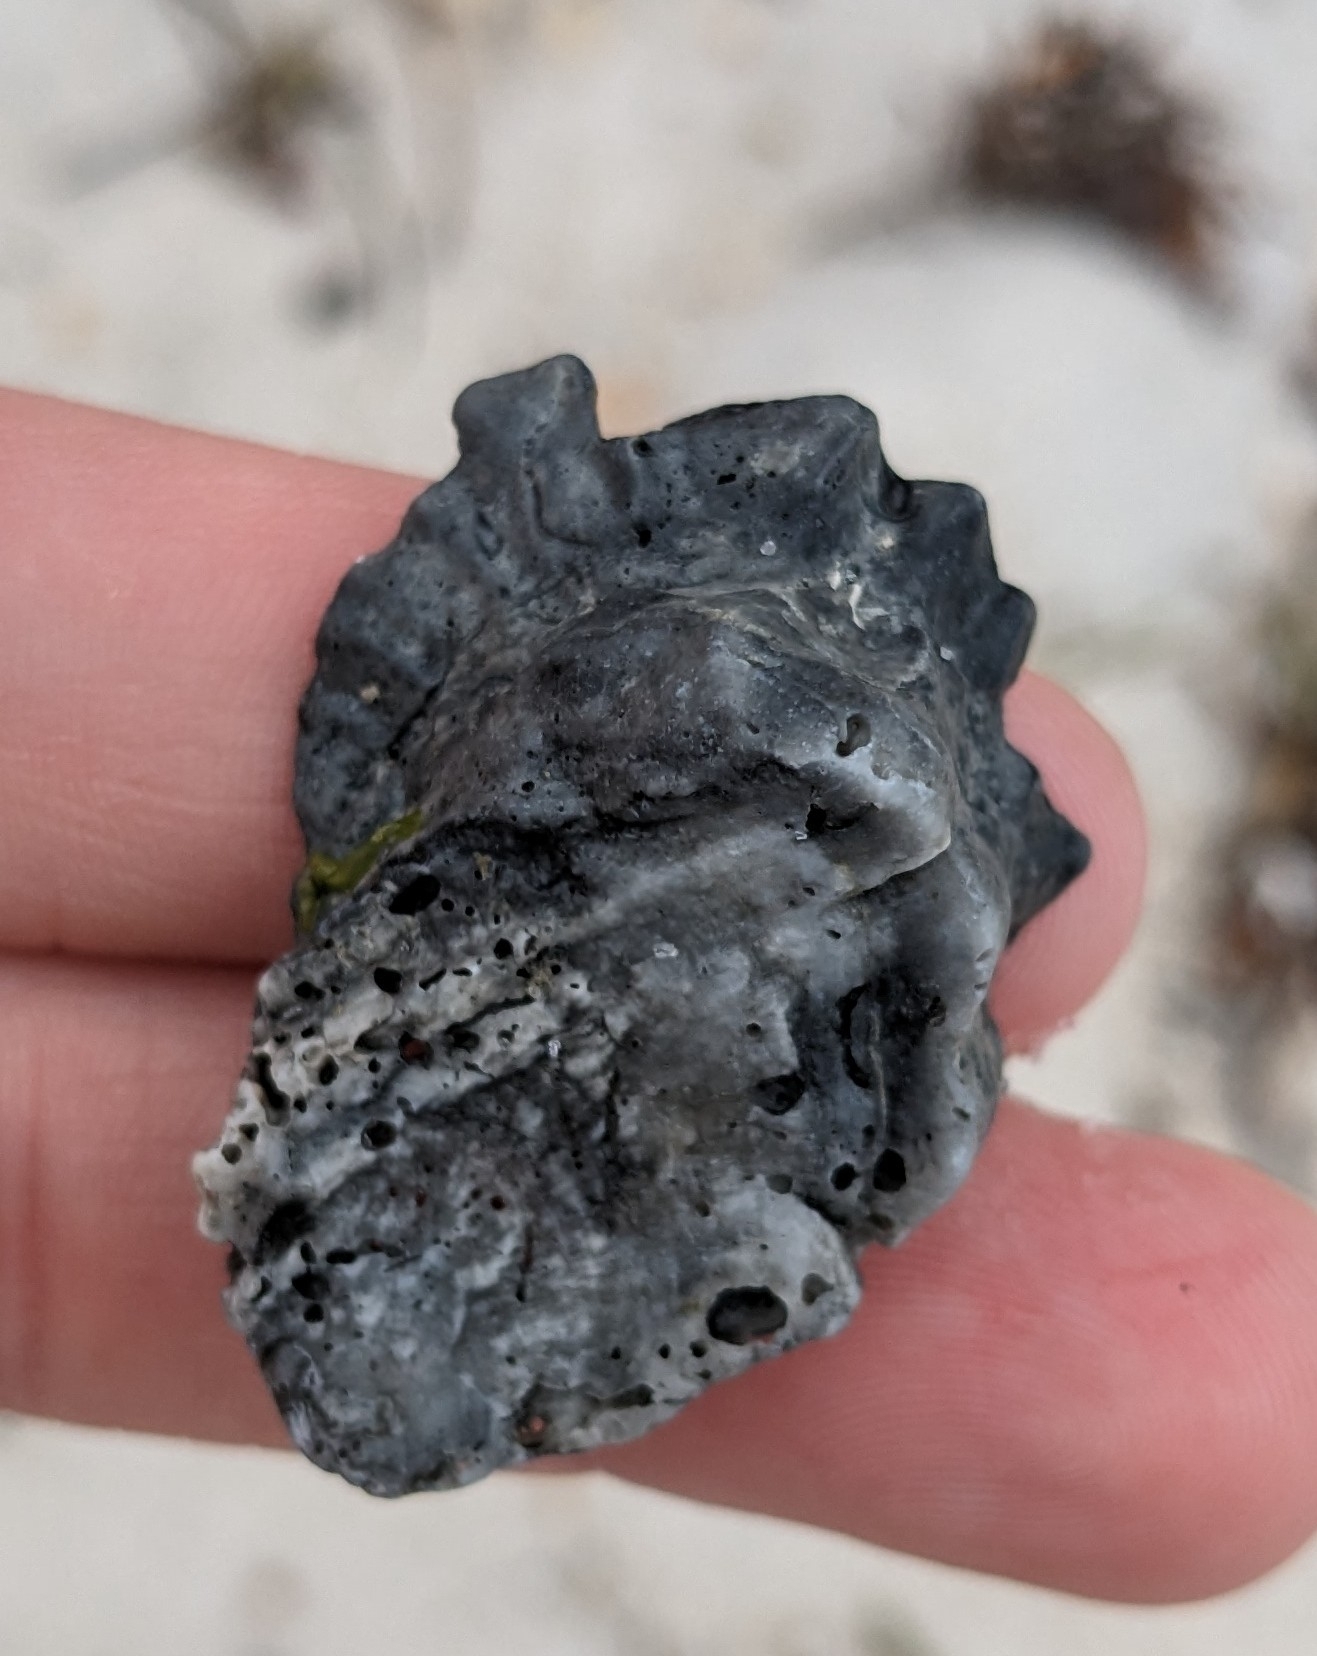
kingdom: Animalia
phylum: Mollusca
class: Bivalvia
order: Ostreida
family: Ostreidae
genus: Crassostrea
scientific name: Crassostrea virginica
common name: American oyster
